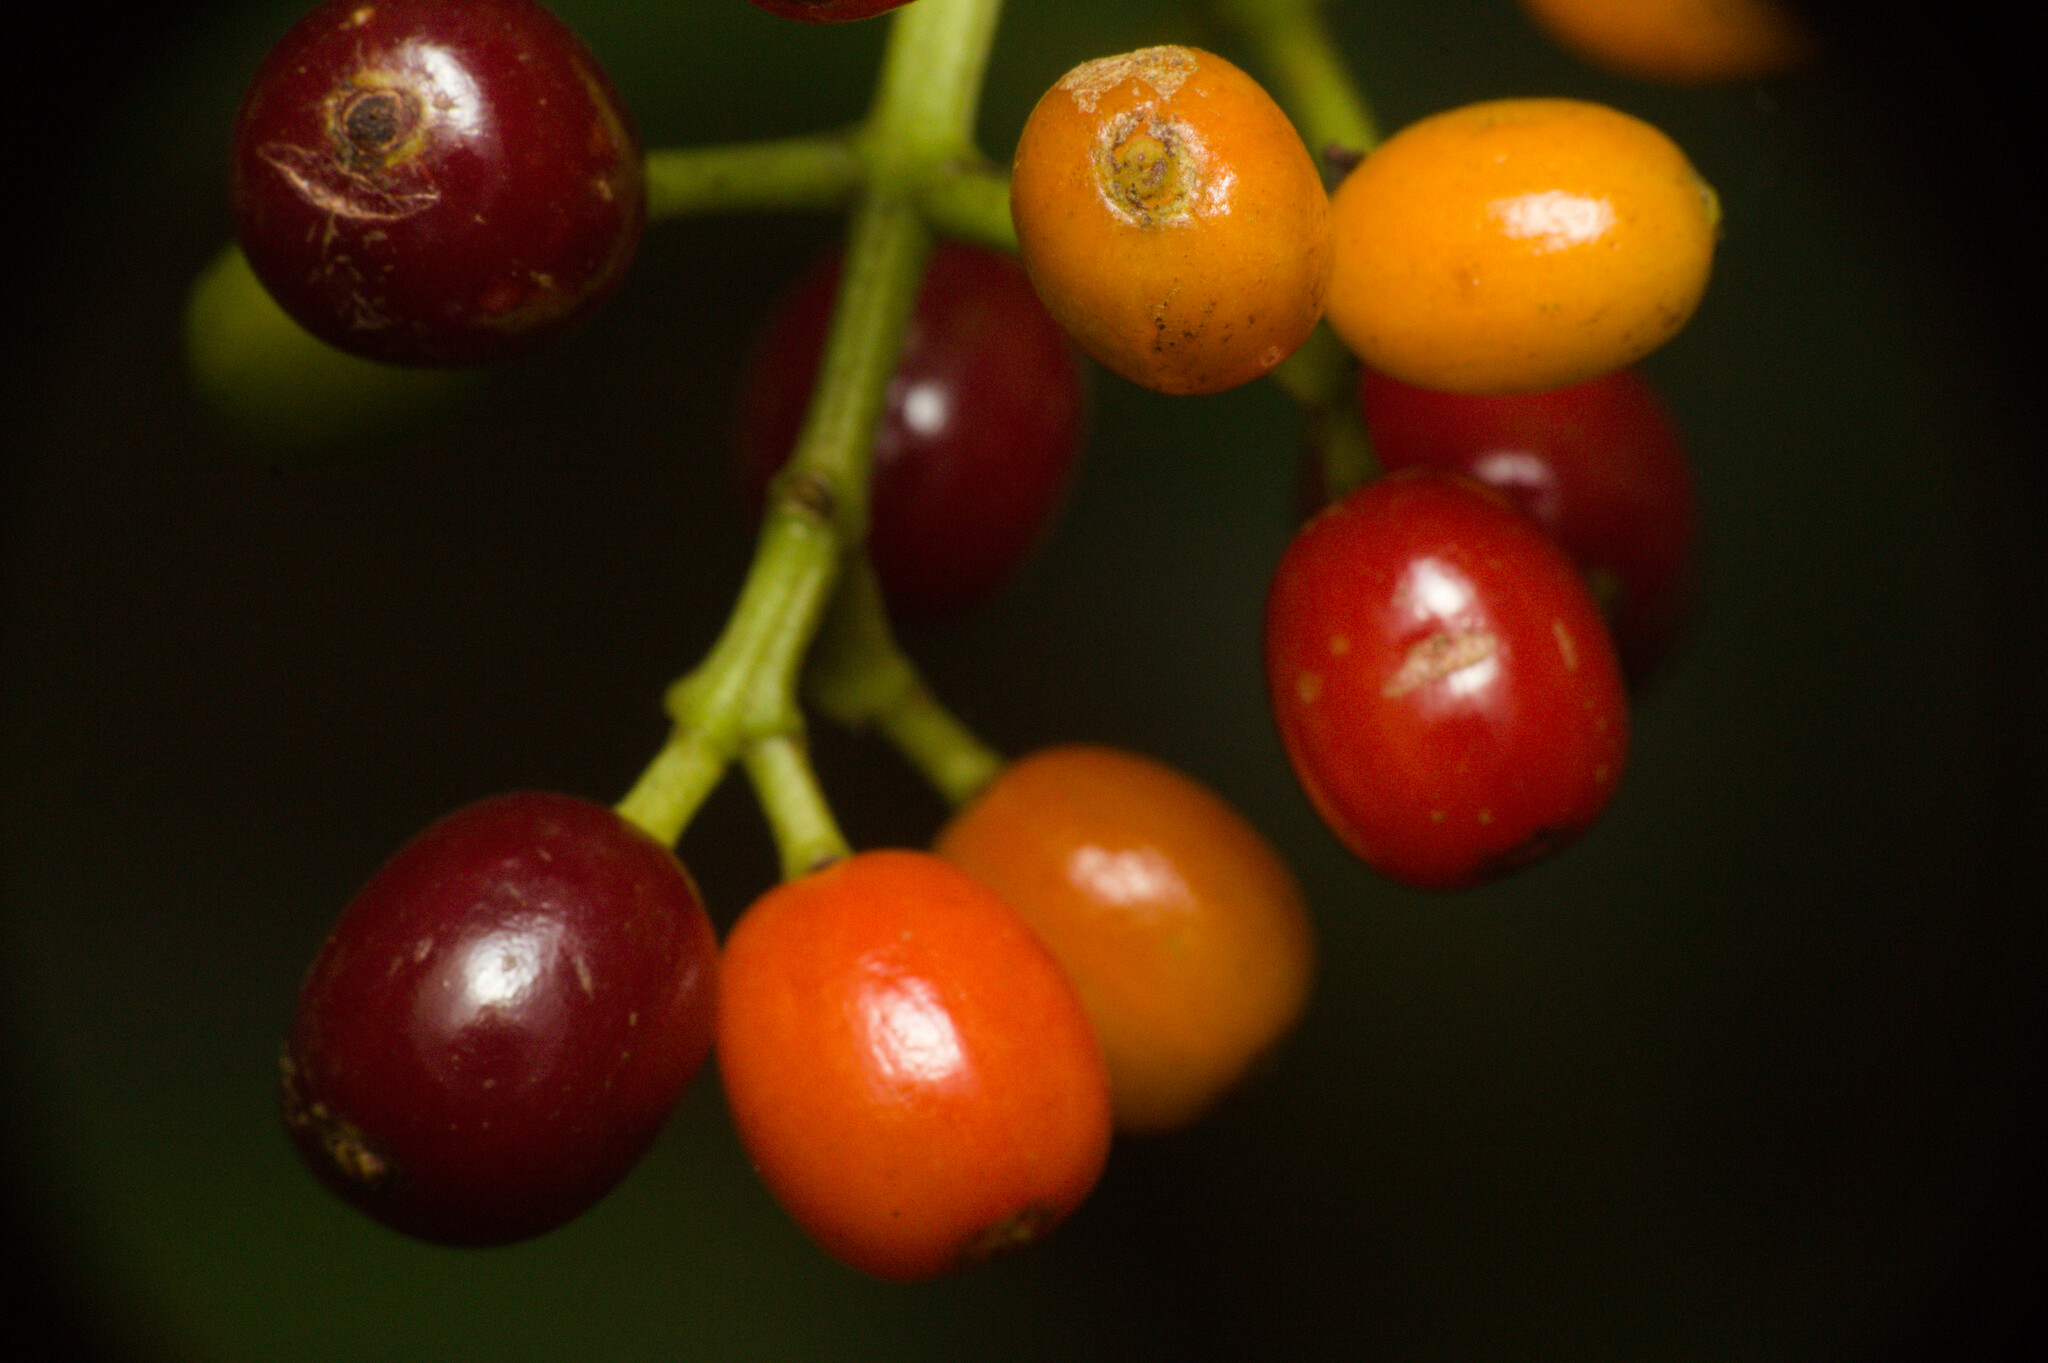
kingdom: Plantae
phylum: Tracheophyta
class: Magnoliopsida
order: Gentianales
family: Rubiaceae
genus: Psychotria
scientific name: Psychotria carthagenensis
